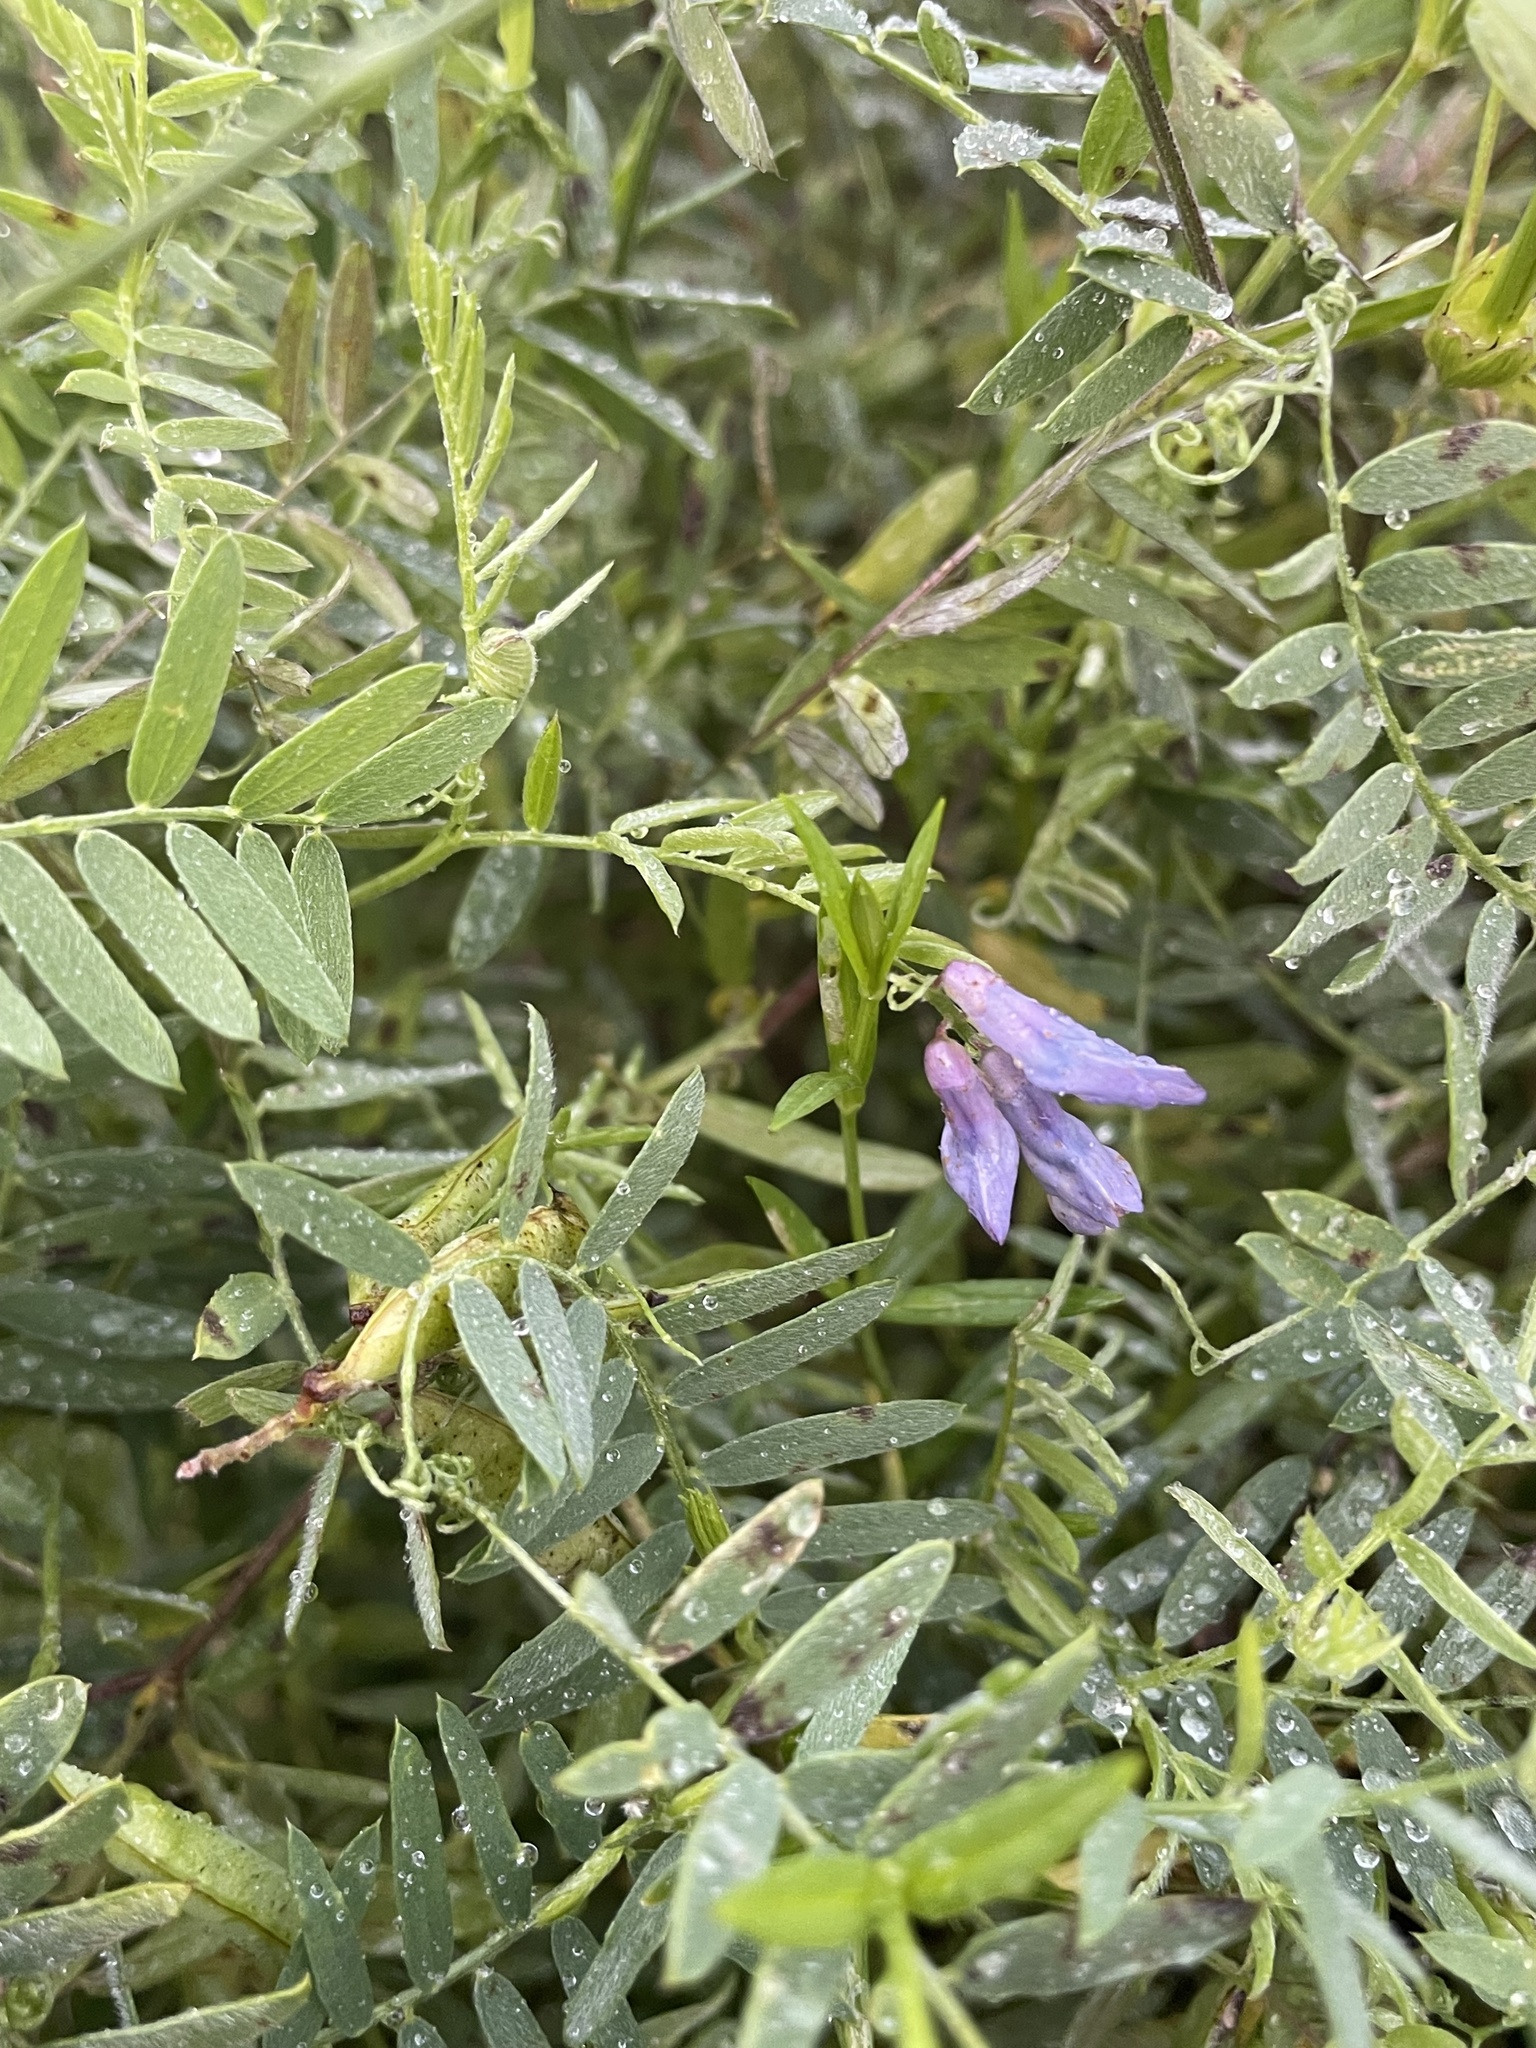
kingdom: Plantae
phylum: Tracheophyta
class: Magnoliopsida
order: Fabales
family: Fabaceae
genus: Vicia
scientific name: Vicia cracca
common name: Bird vetch
